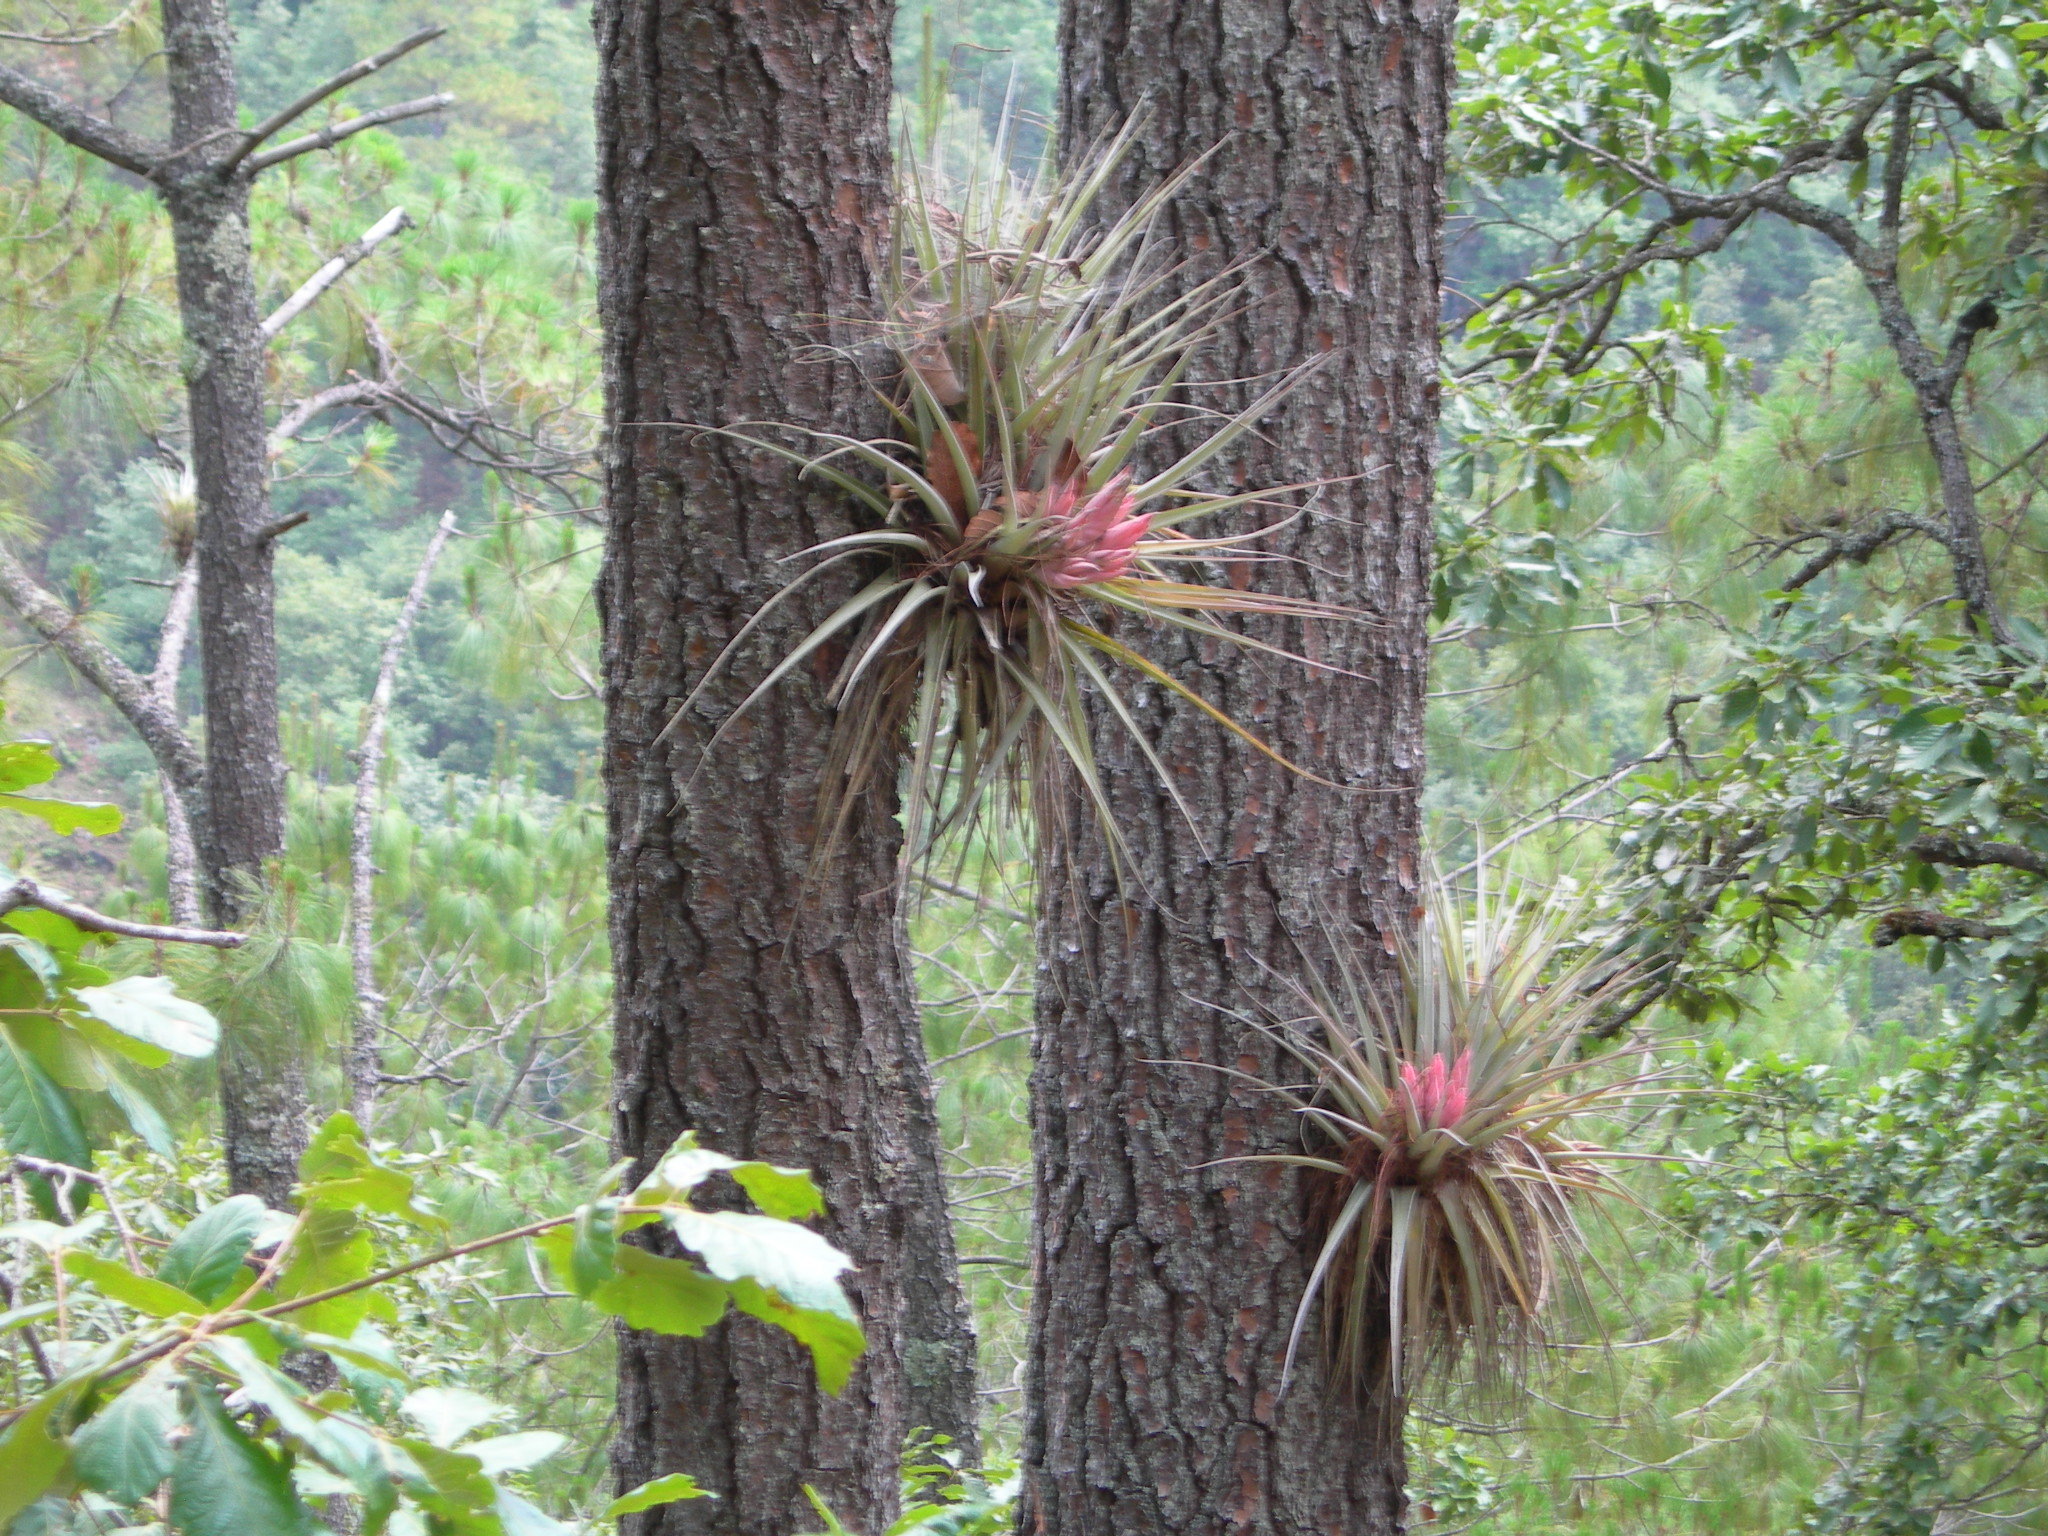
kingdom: Plantae
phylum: Tracheophyta
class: Liliopsida
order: Poales
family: Bromeliaceae
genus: Tillandsia
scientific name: Tillandsia carlsoniae
